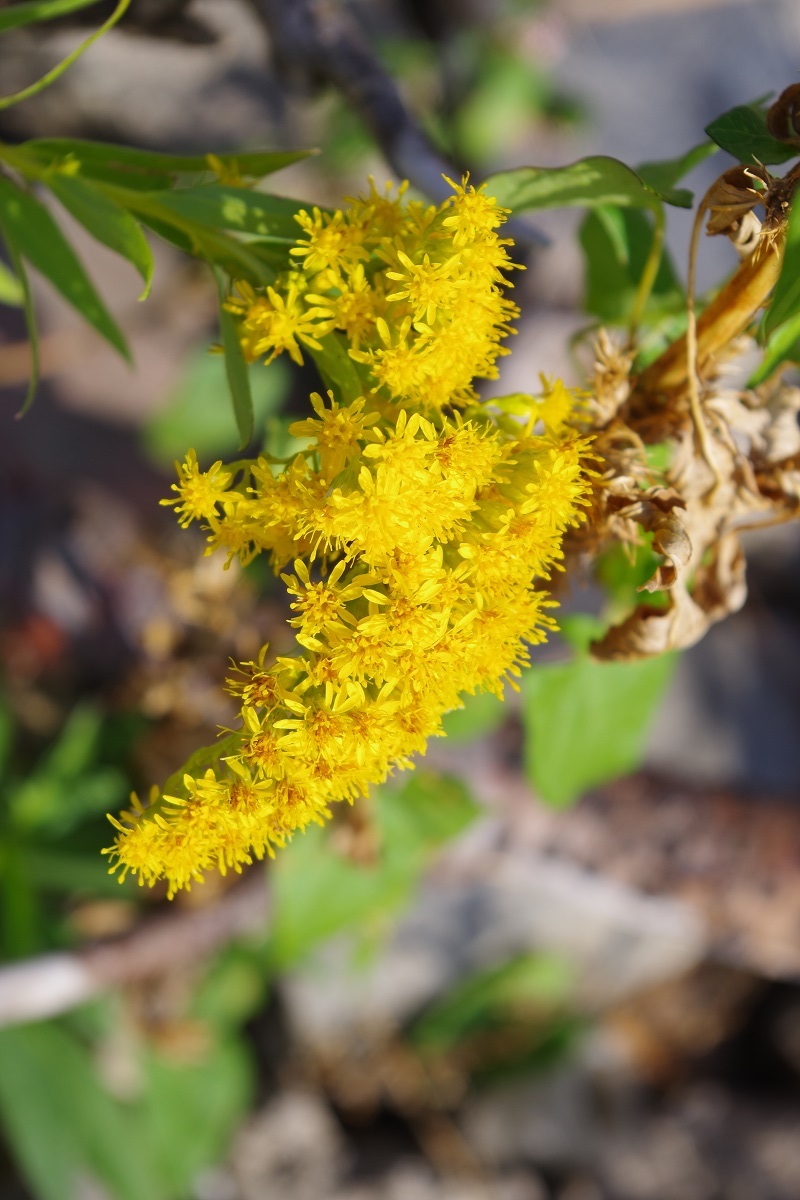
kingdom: Plantae
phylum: Tracheophyta
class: Magnoliopsida
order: Asterales
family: Asteraceae
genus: Solidago
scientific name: Solidago gigantea
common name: Giant goldenrod
